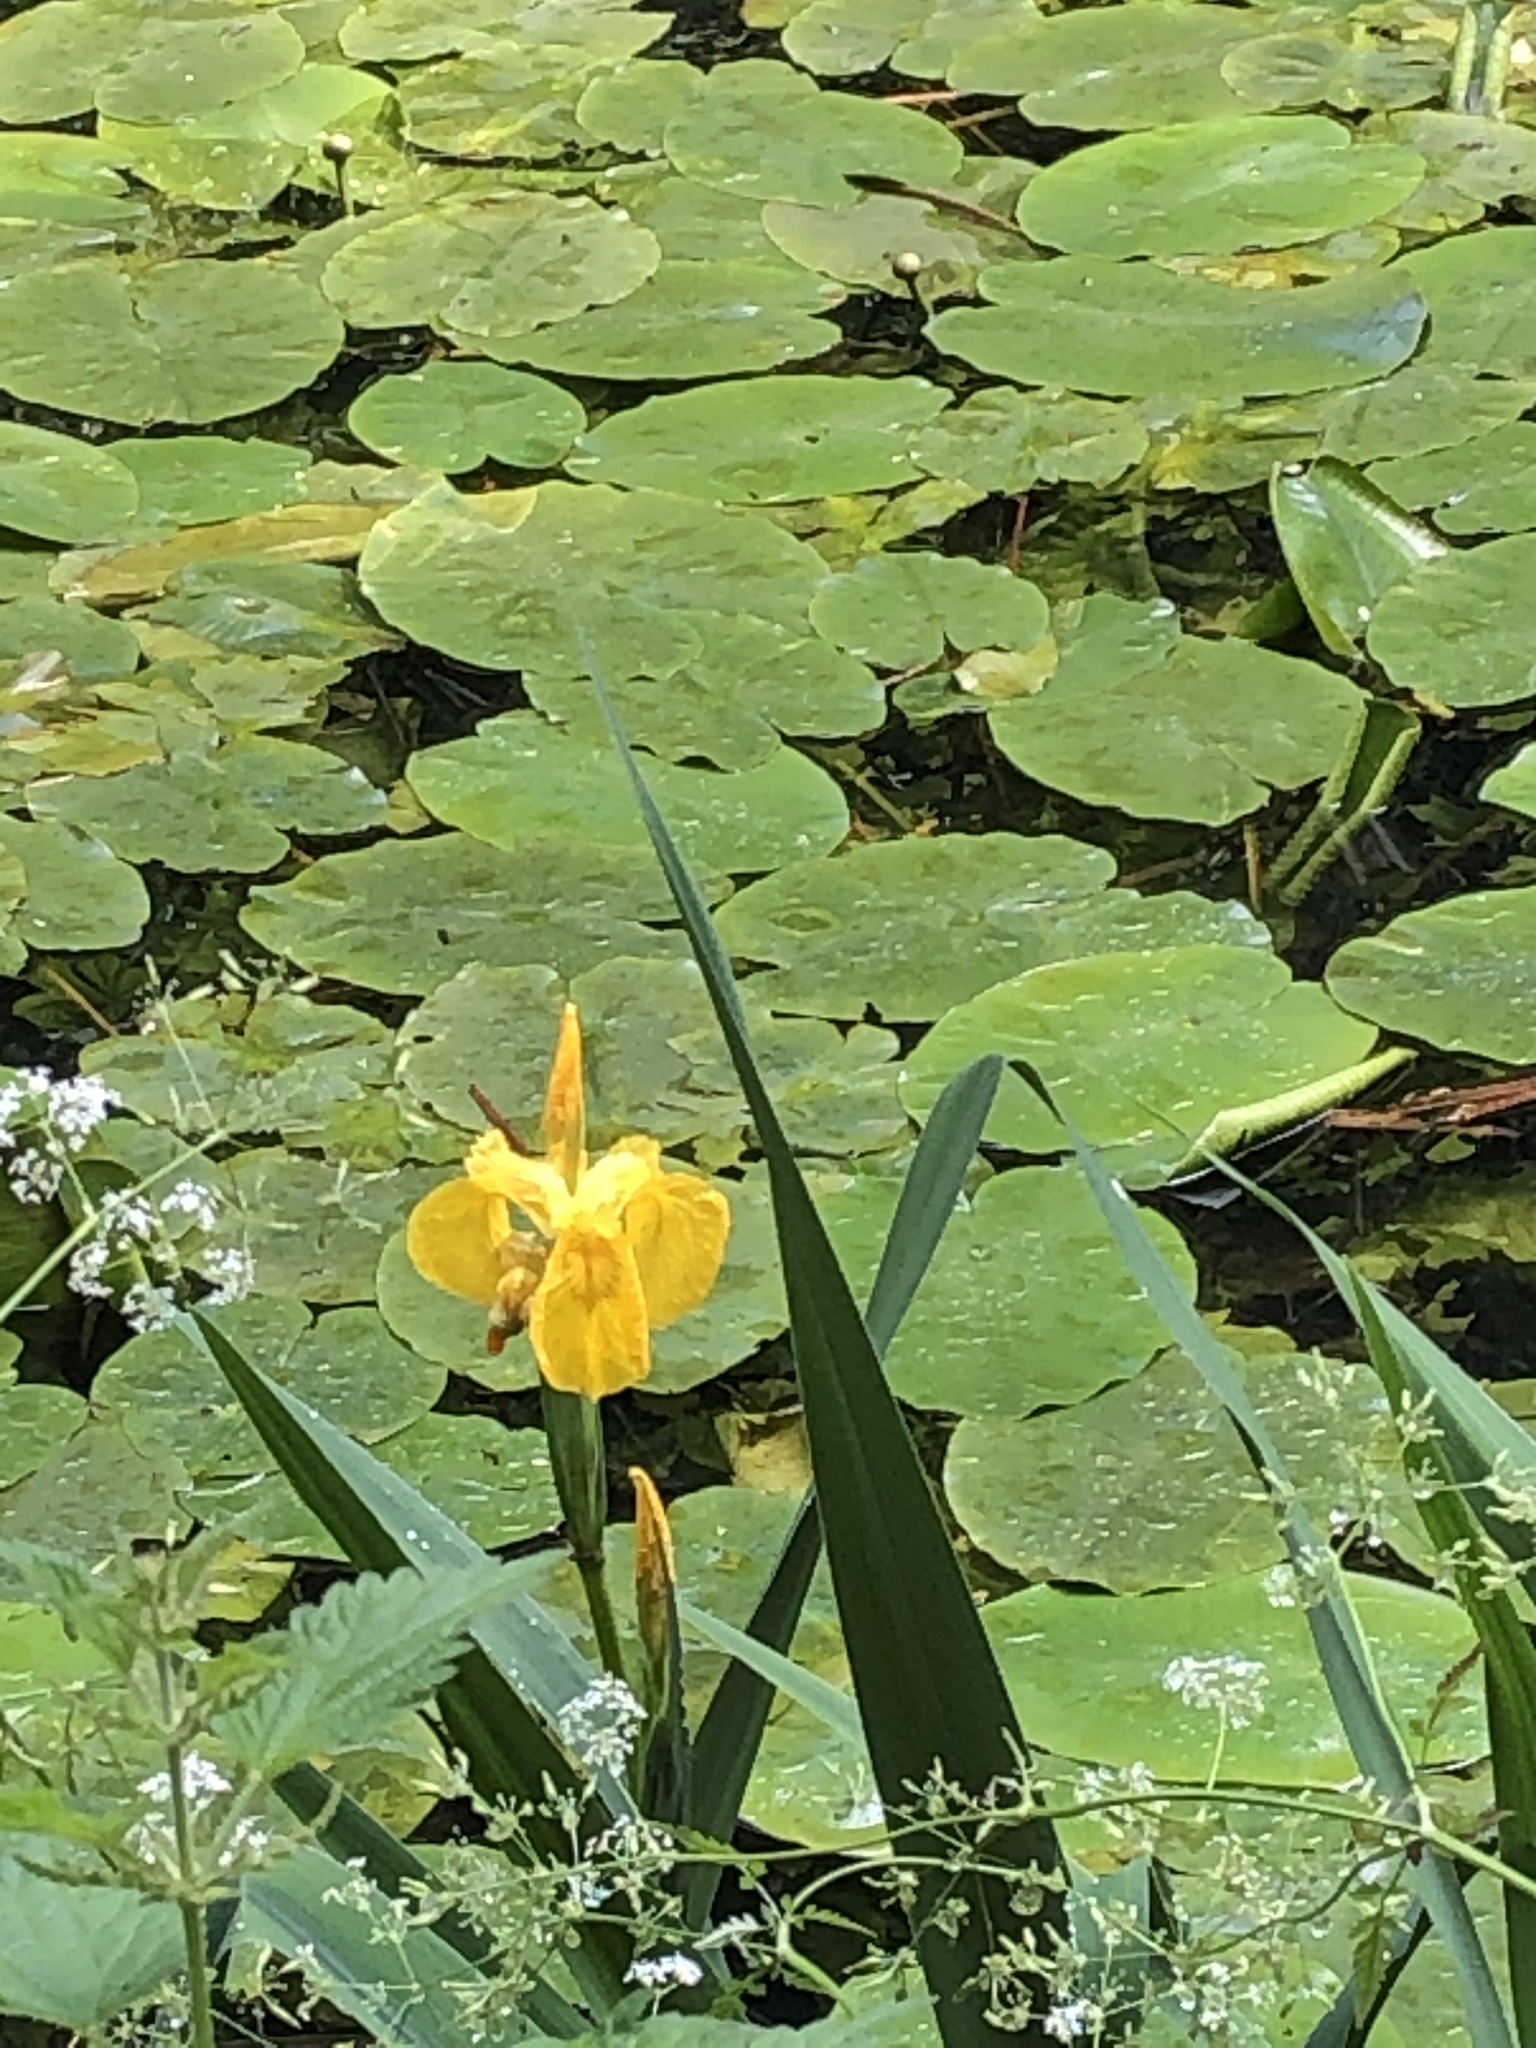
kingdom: Plantae
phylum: Tracheophyta
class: Liliopsida
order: Asparagales
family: Iridaceae
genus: Iris
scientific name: Iris pseudacorus
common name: Yellow flag
